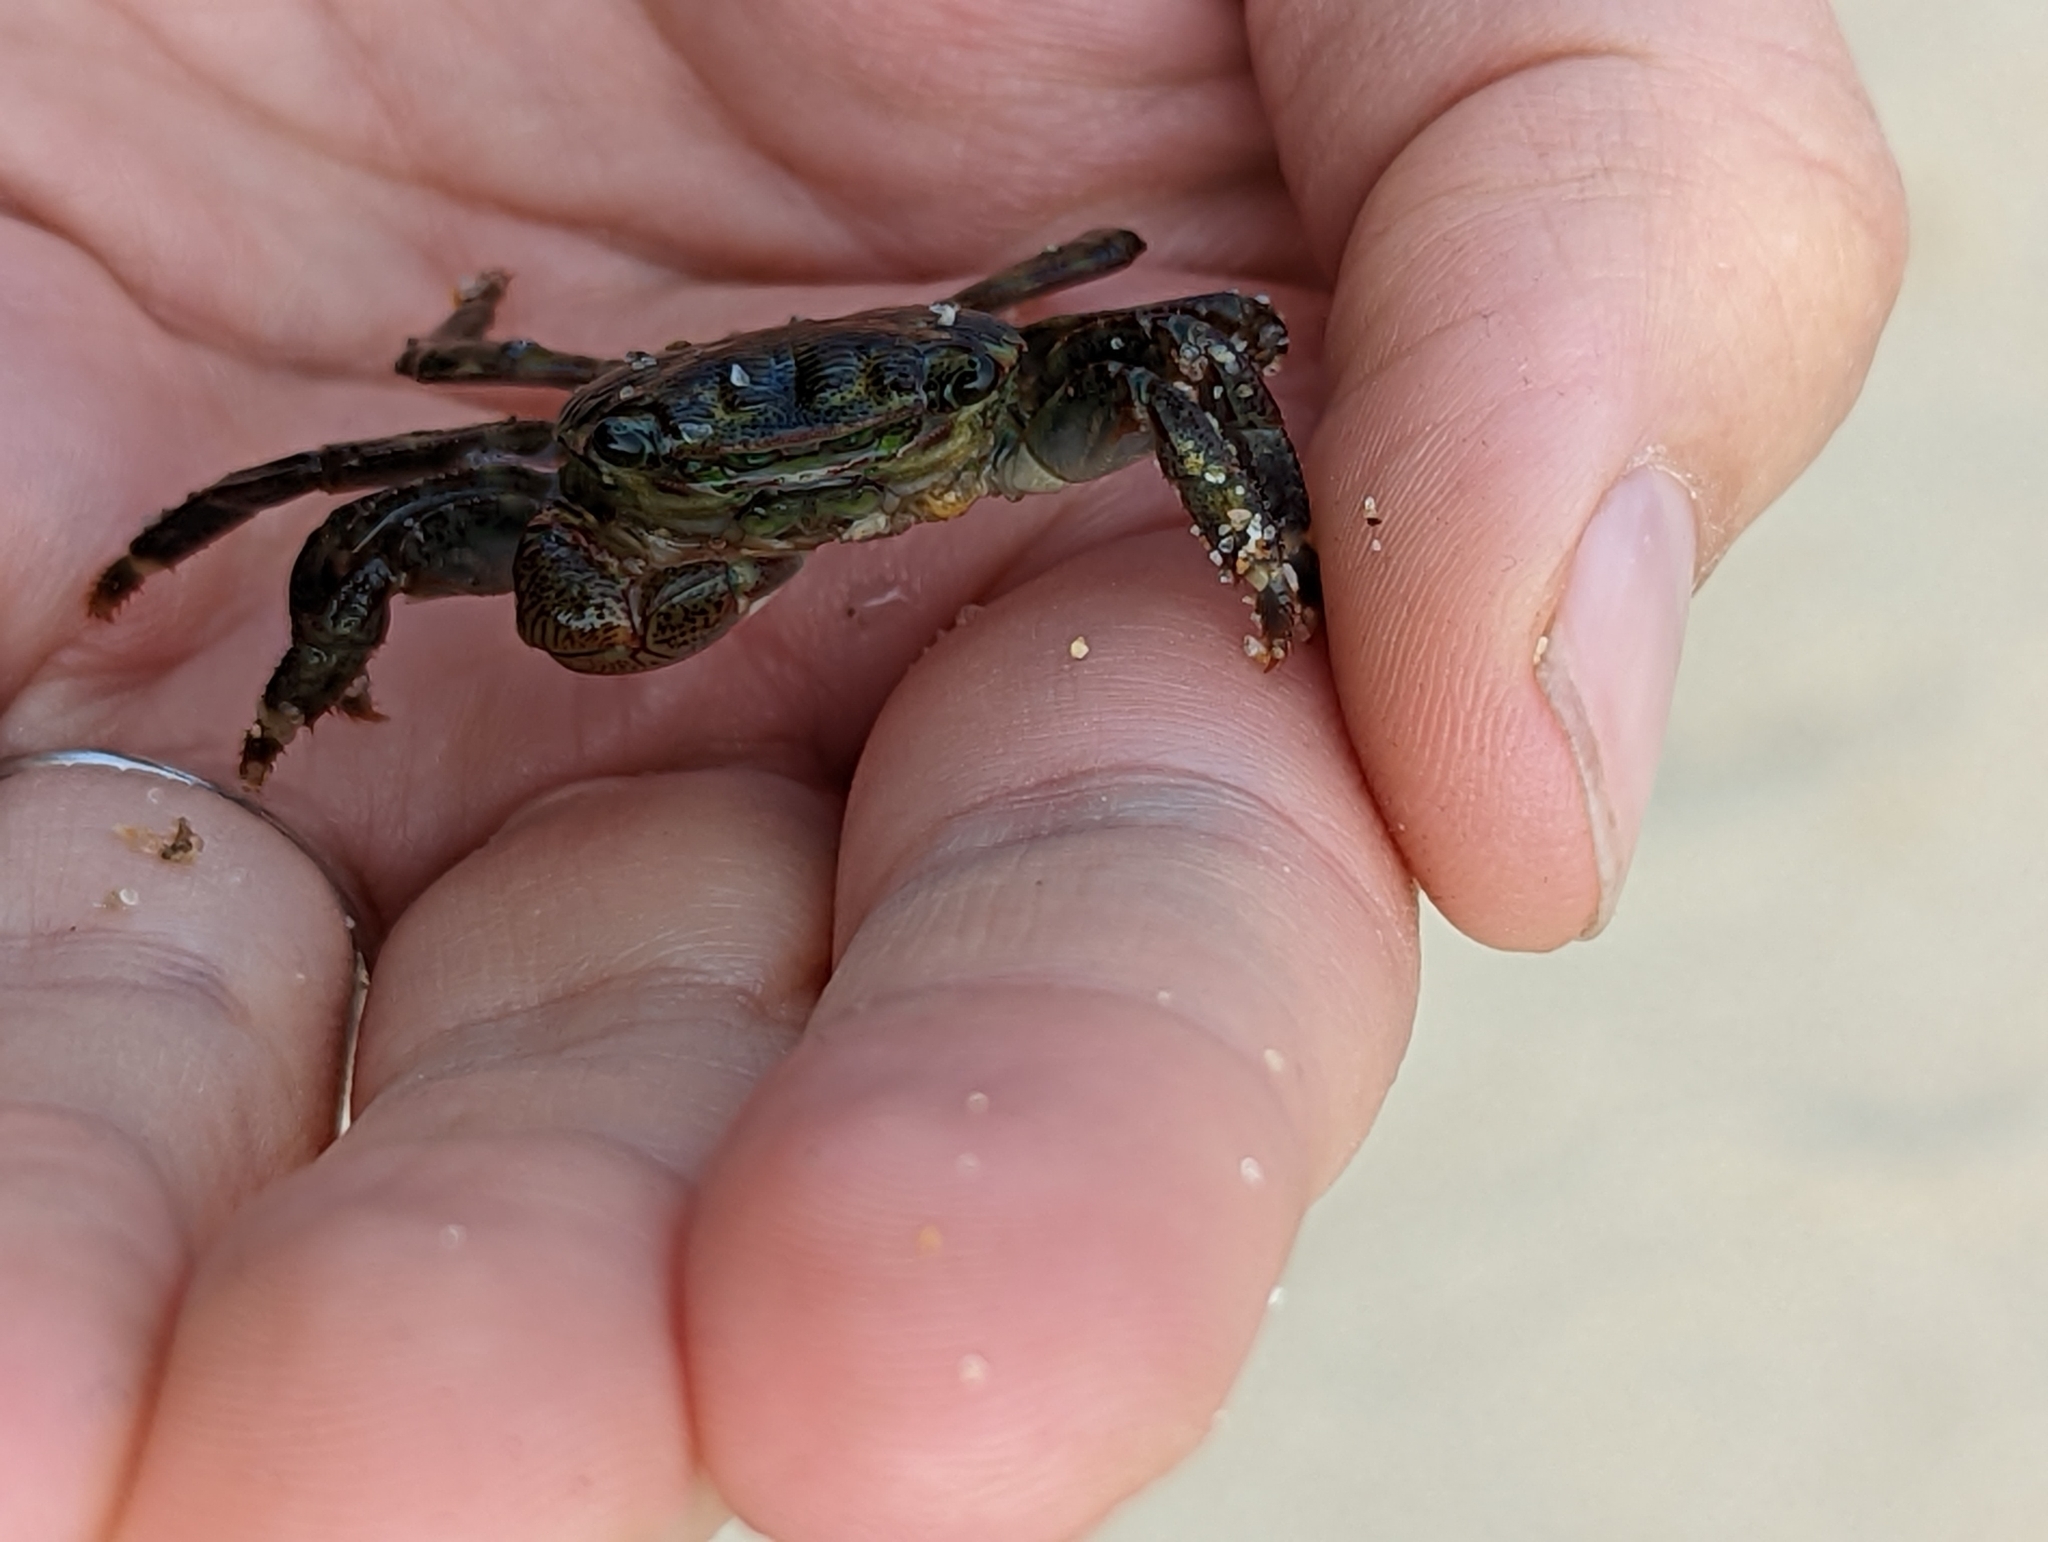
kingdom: Animalia
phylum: Arthropoda
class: Malacostraca
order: Decapoda
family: Grapsidae
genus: Pachygrapsus
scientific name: Pachygrapsus crassipes
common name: Striped shore crab
